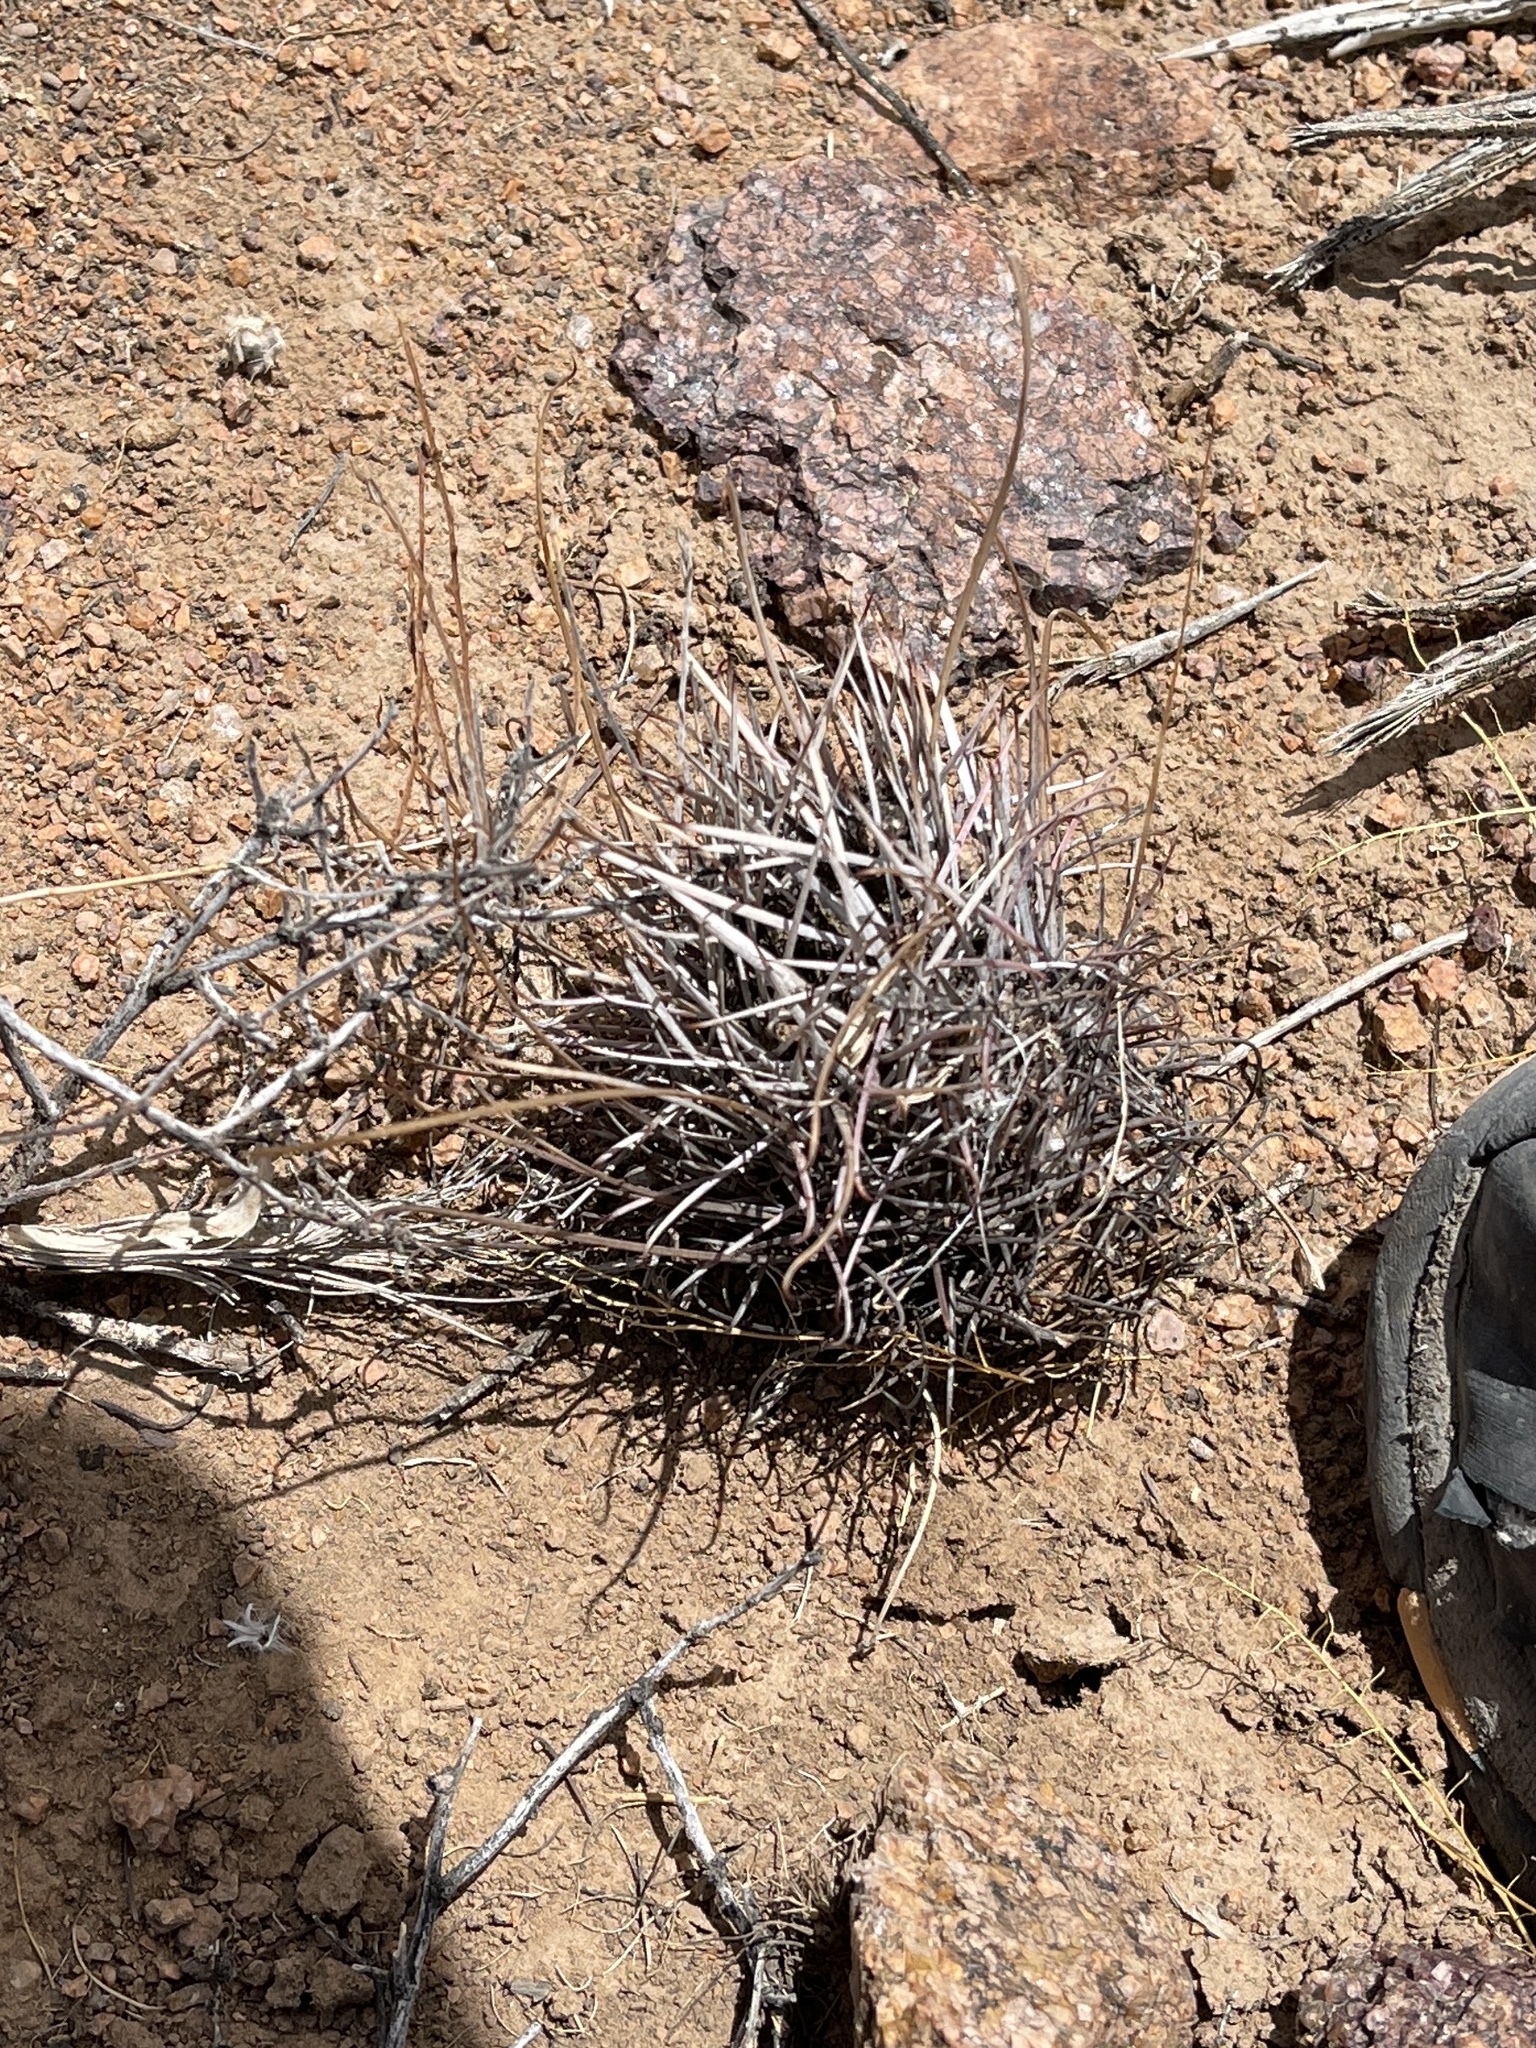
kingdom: Plantae
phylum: Tracheophyta
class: Magnoliopsida
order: Caryophyllales
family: Cactaceae
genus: Ferocactus
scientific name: Ferocactus uncinatus
